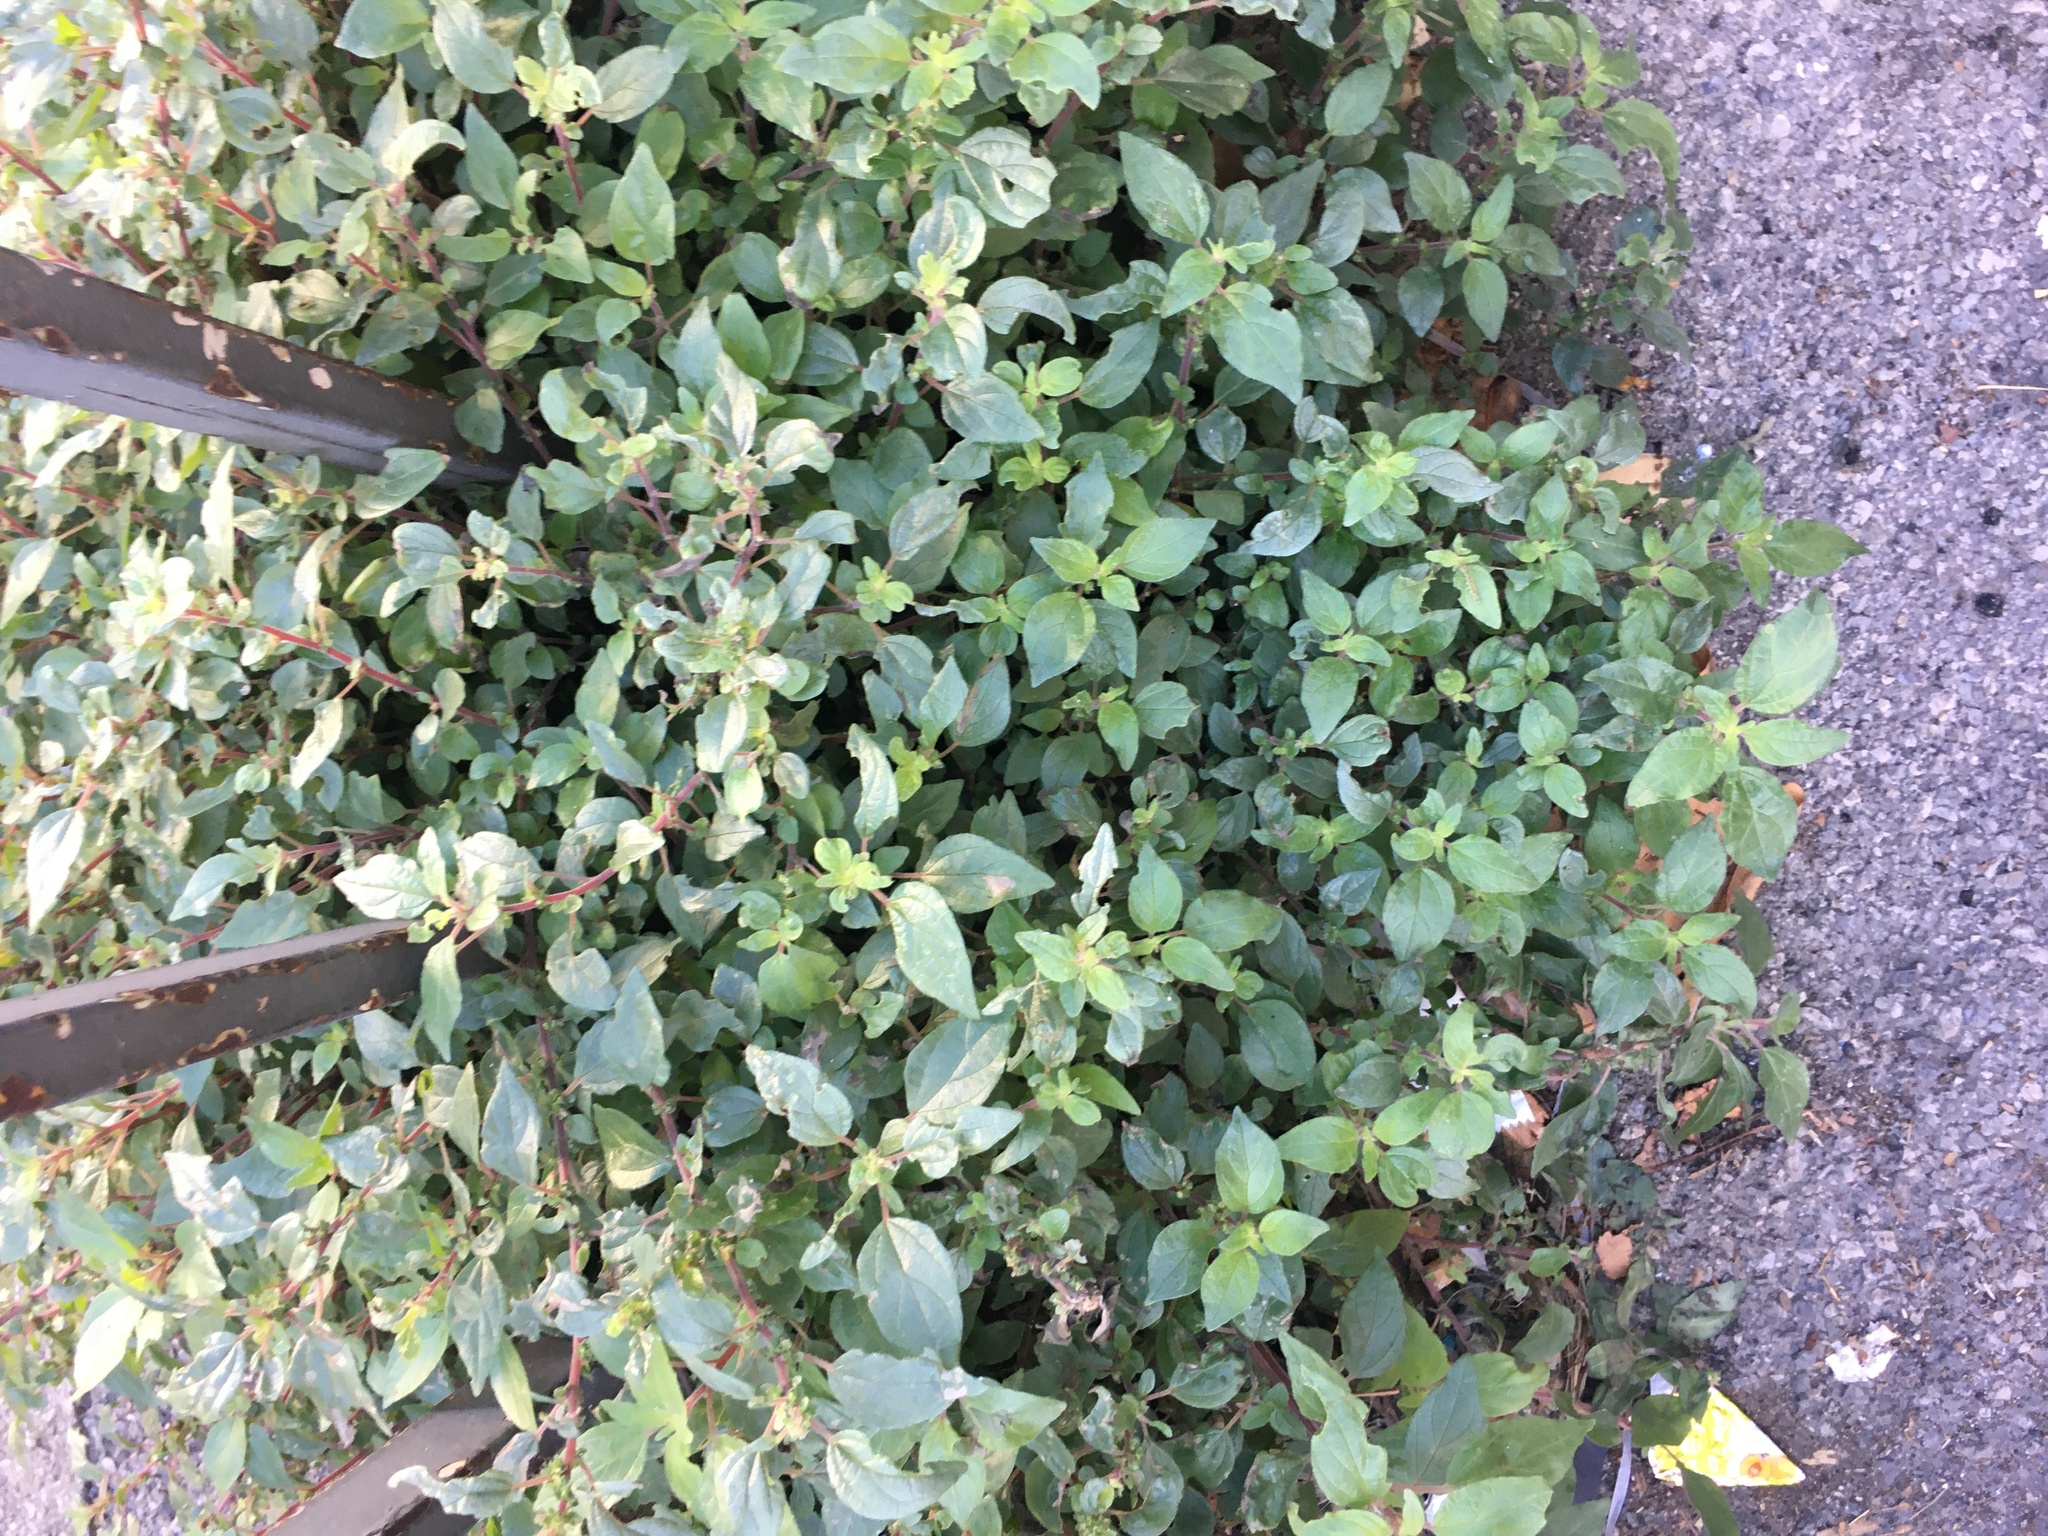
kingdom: Plantae
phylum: Tracheophyta
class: Magnoliopsida
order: Rosales
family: Urticaceae
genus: Parietaria
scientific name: Parietaria judaica
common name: Pellitory-of-the-wall
